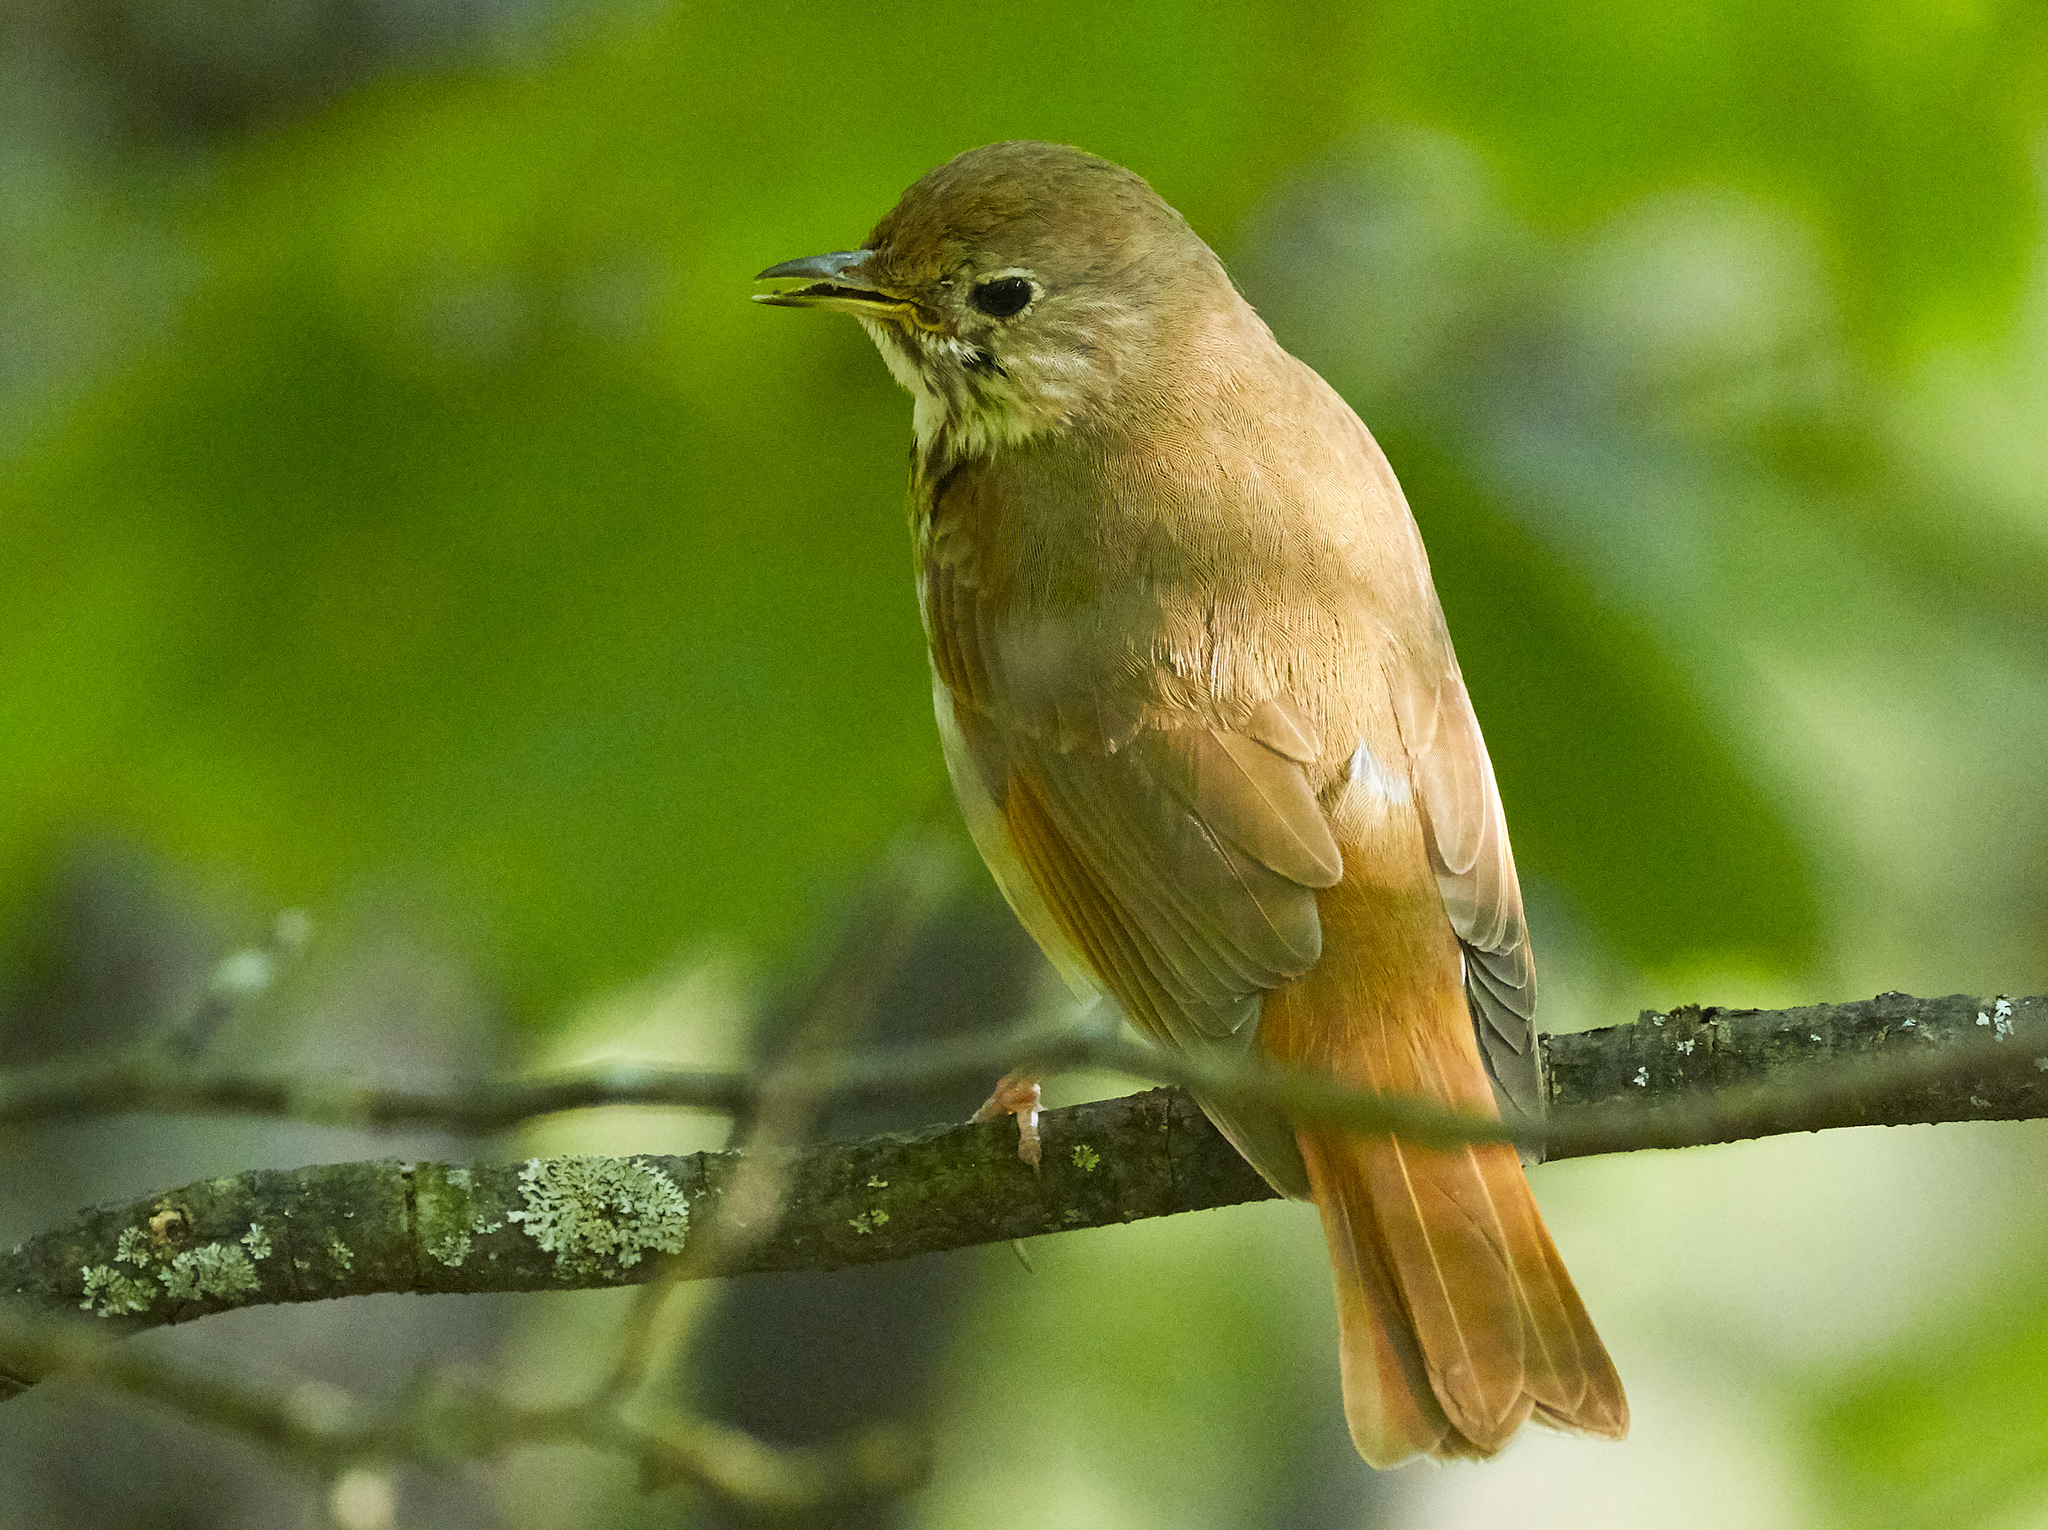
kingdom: Animalia
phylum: Chordata
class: Aves
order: Passeriformes
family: Turdidae
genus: Catharus
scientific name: Catharus guttatus
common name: Hermit thrush
